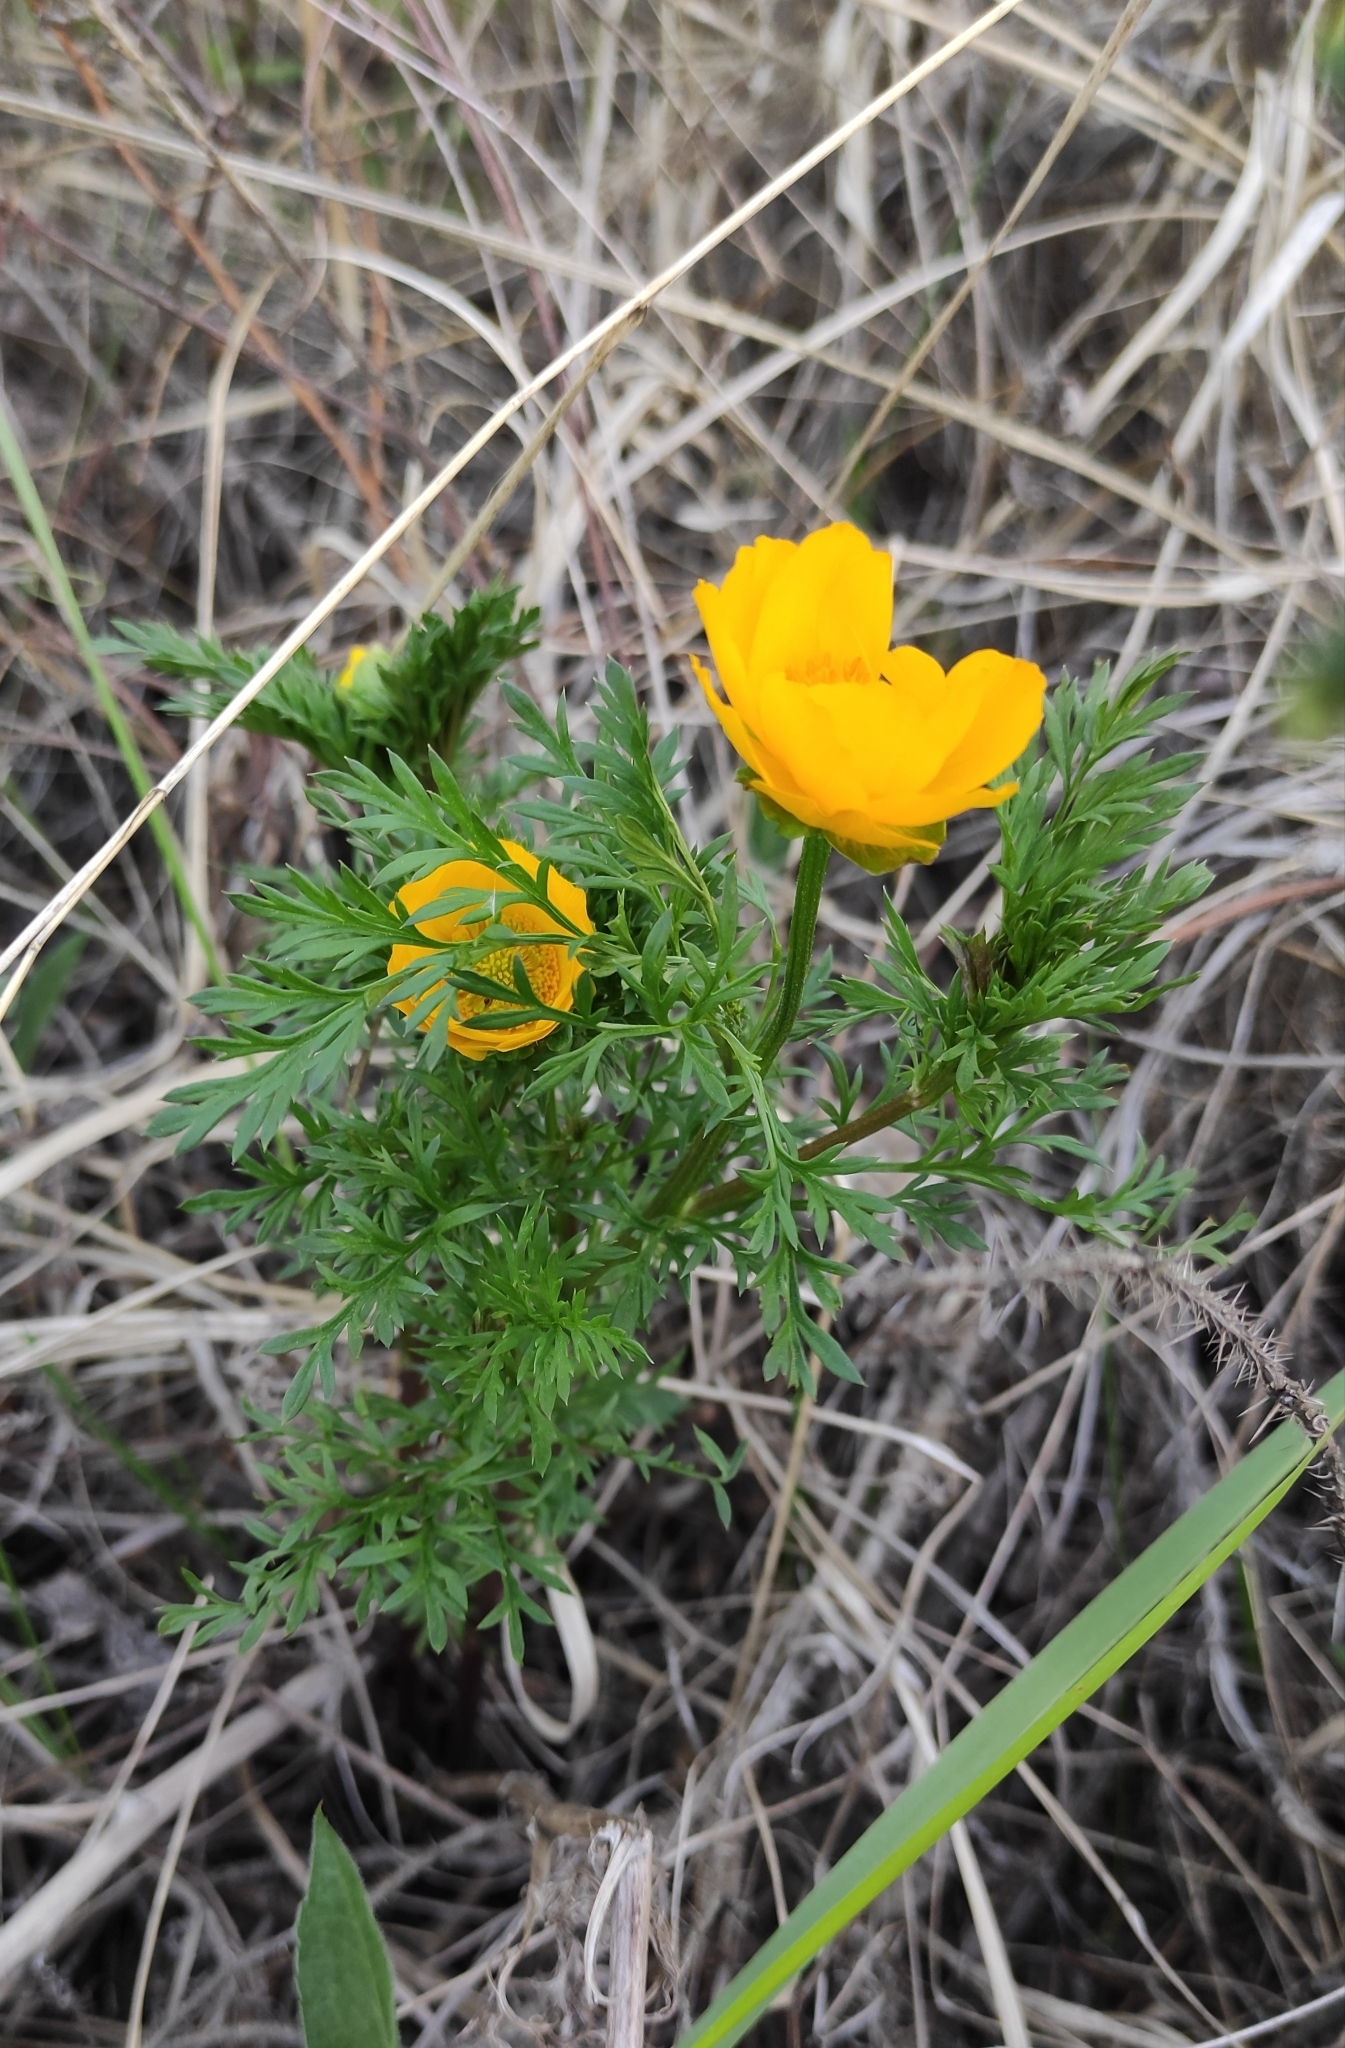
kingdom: Plantae
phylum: Tracheophyta
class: Magnoliopsida
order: Ranunculales
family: Ranunculaceae
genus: Adonis
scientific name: Adonis
